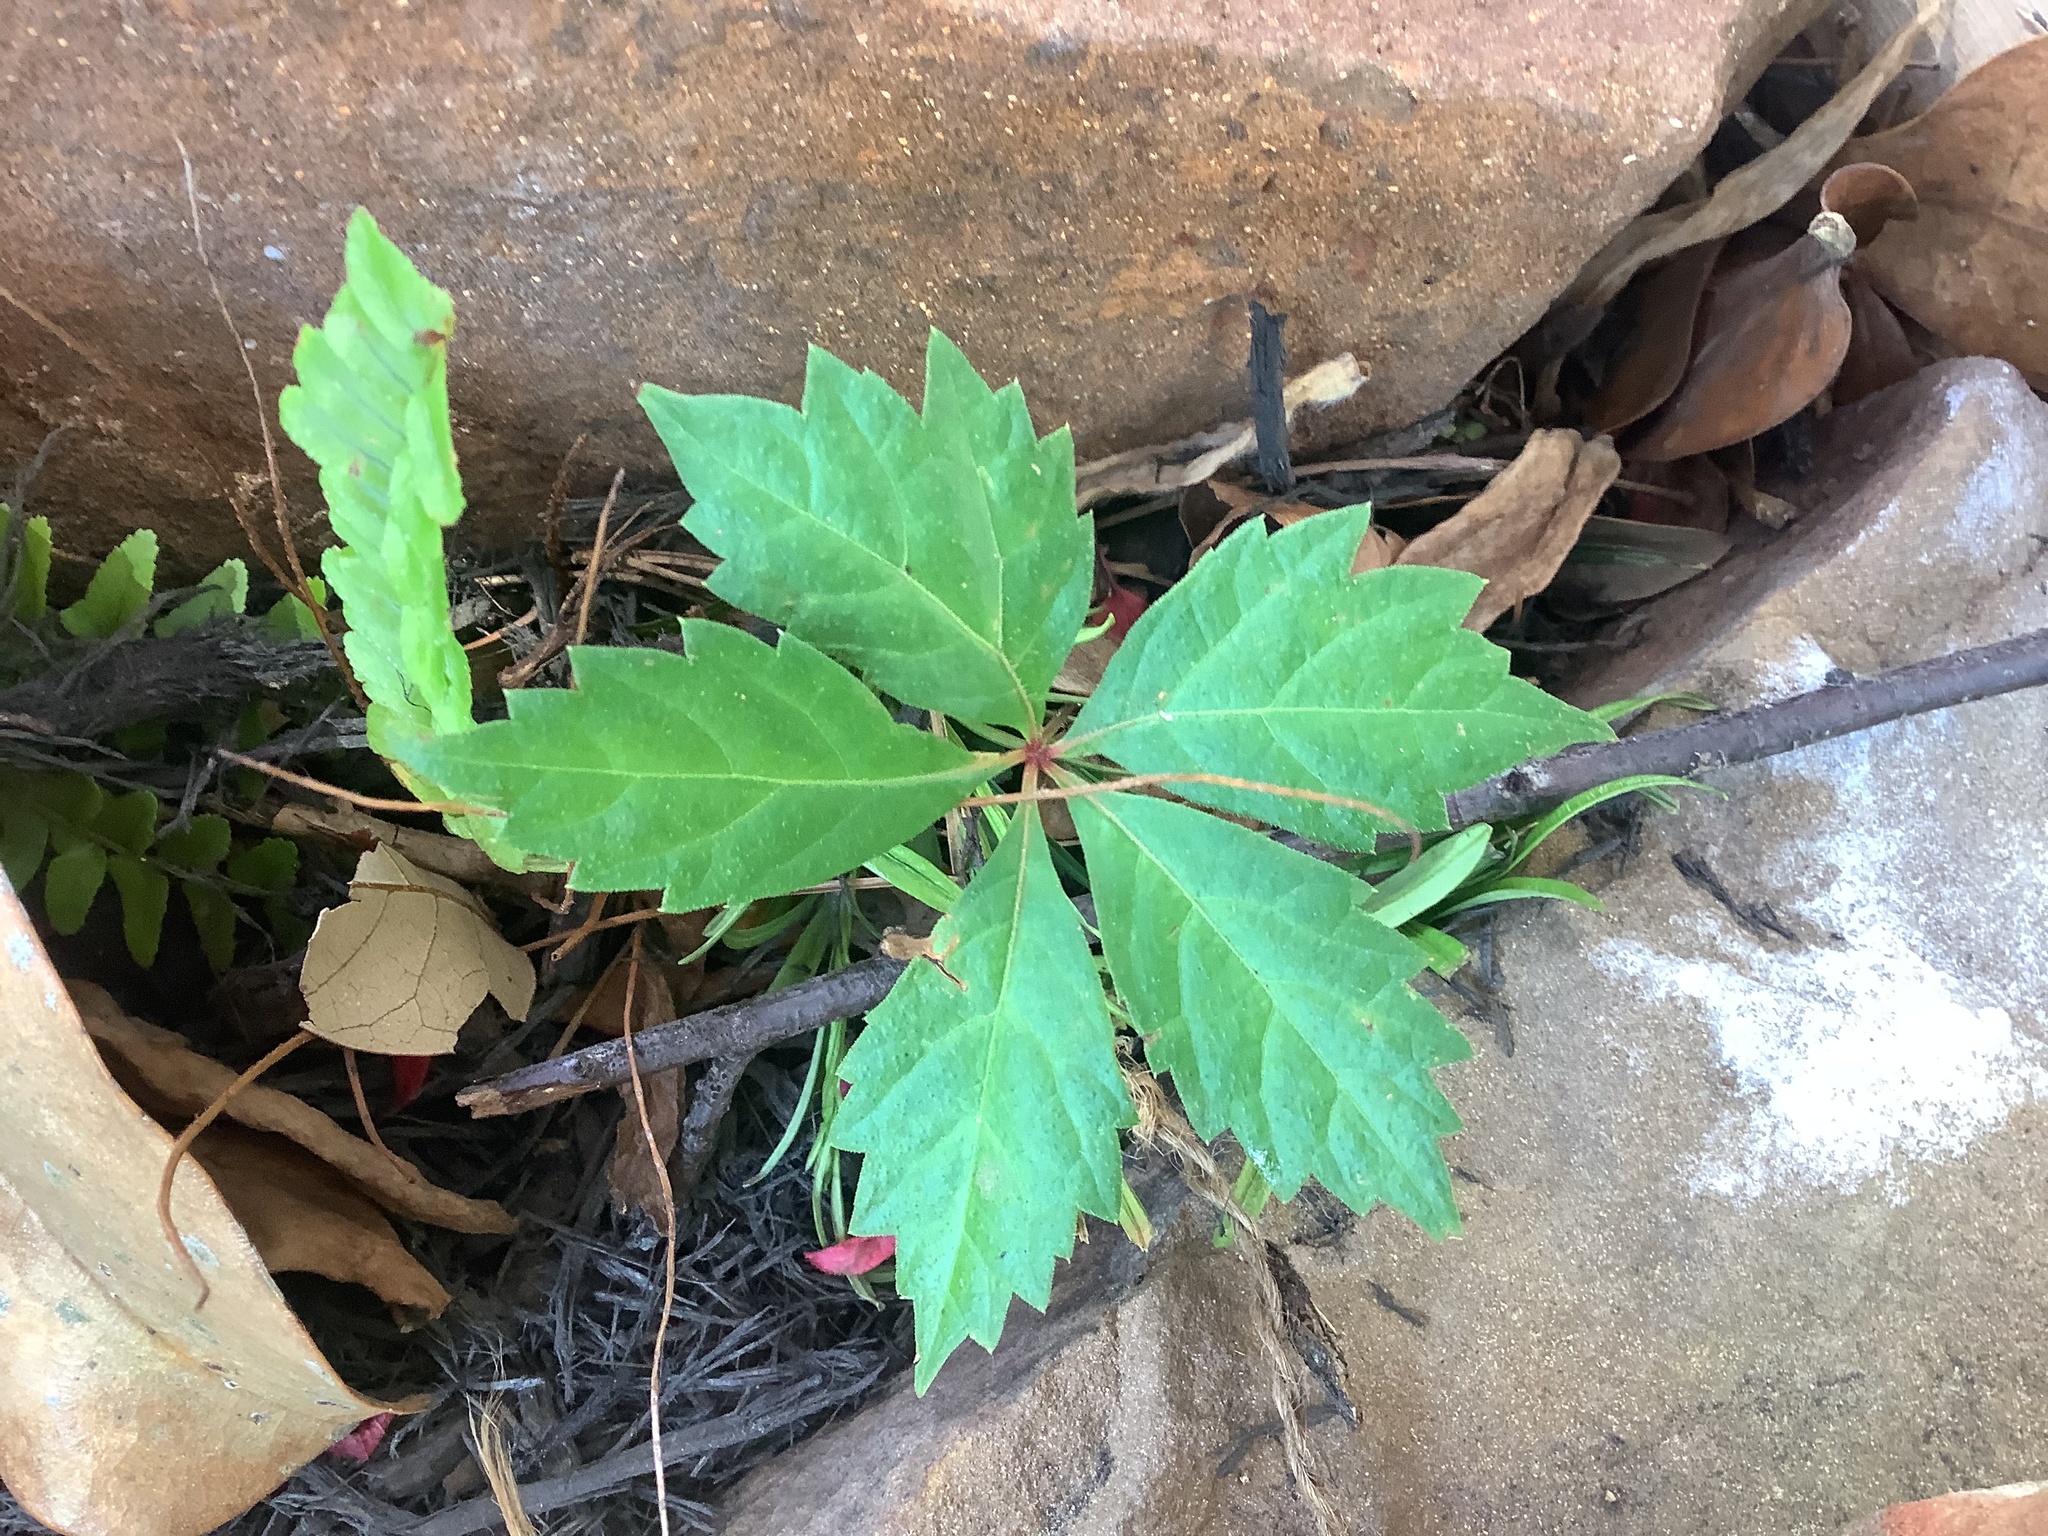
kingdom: Plantae
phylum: Tracheophyta
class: Magnoliopsida
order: Vitales
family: Vitaceae
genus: Parthenocissus
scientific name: Parthenocissus quinquefolia
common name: Virginia-creeper
